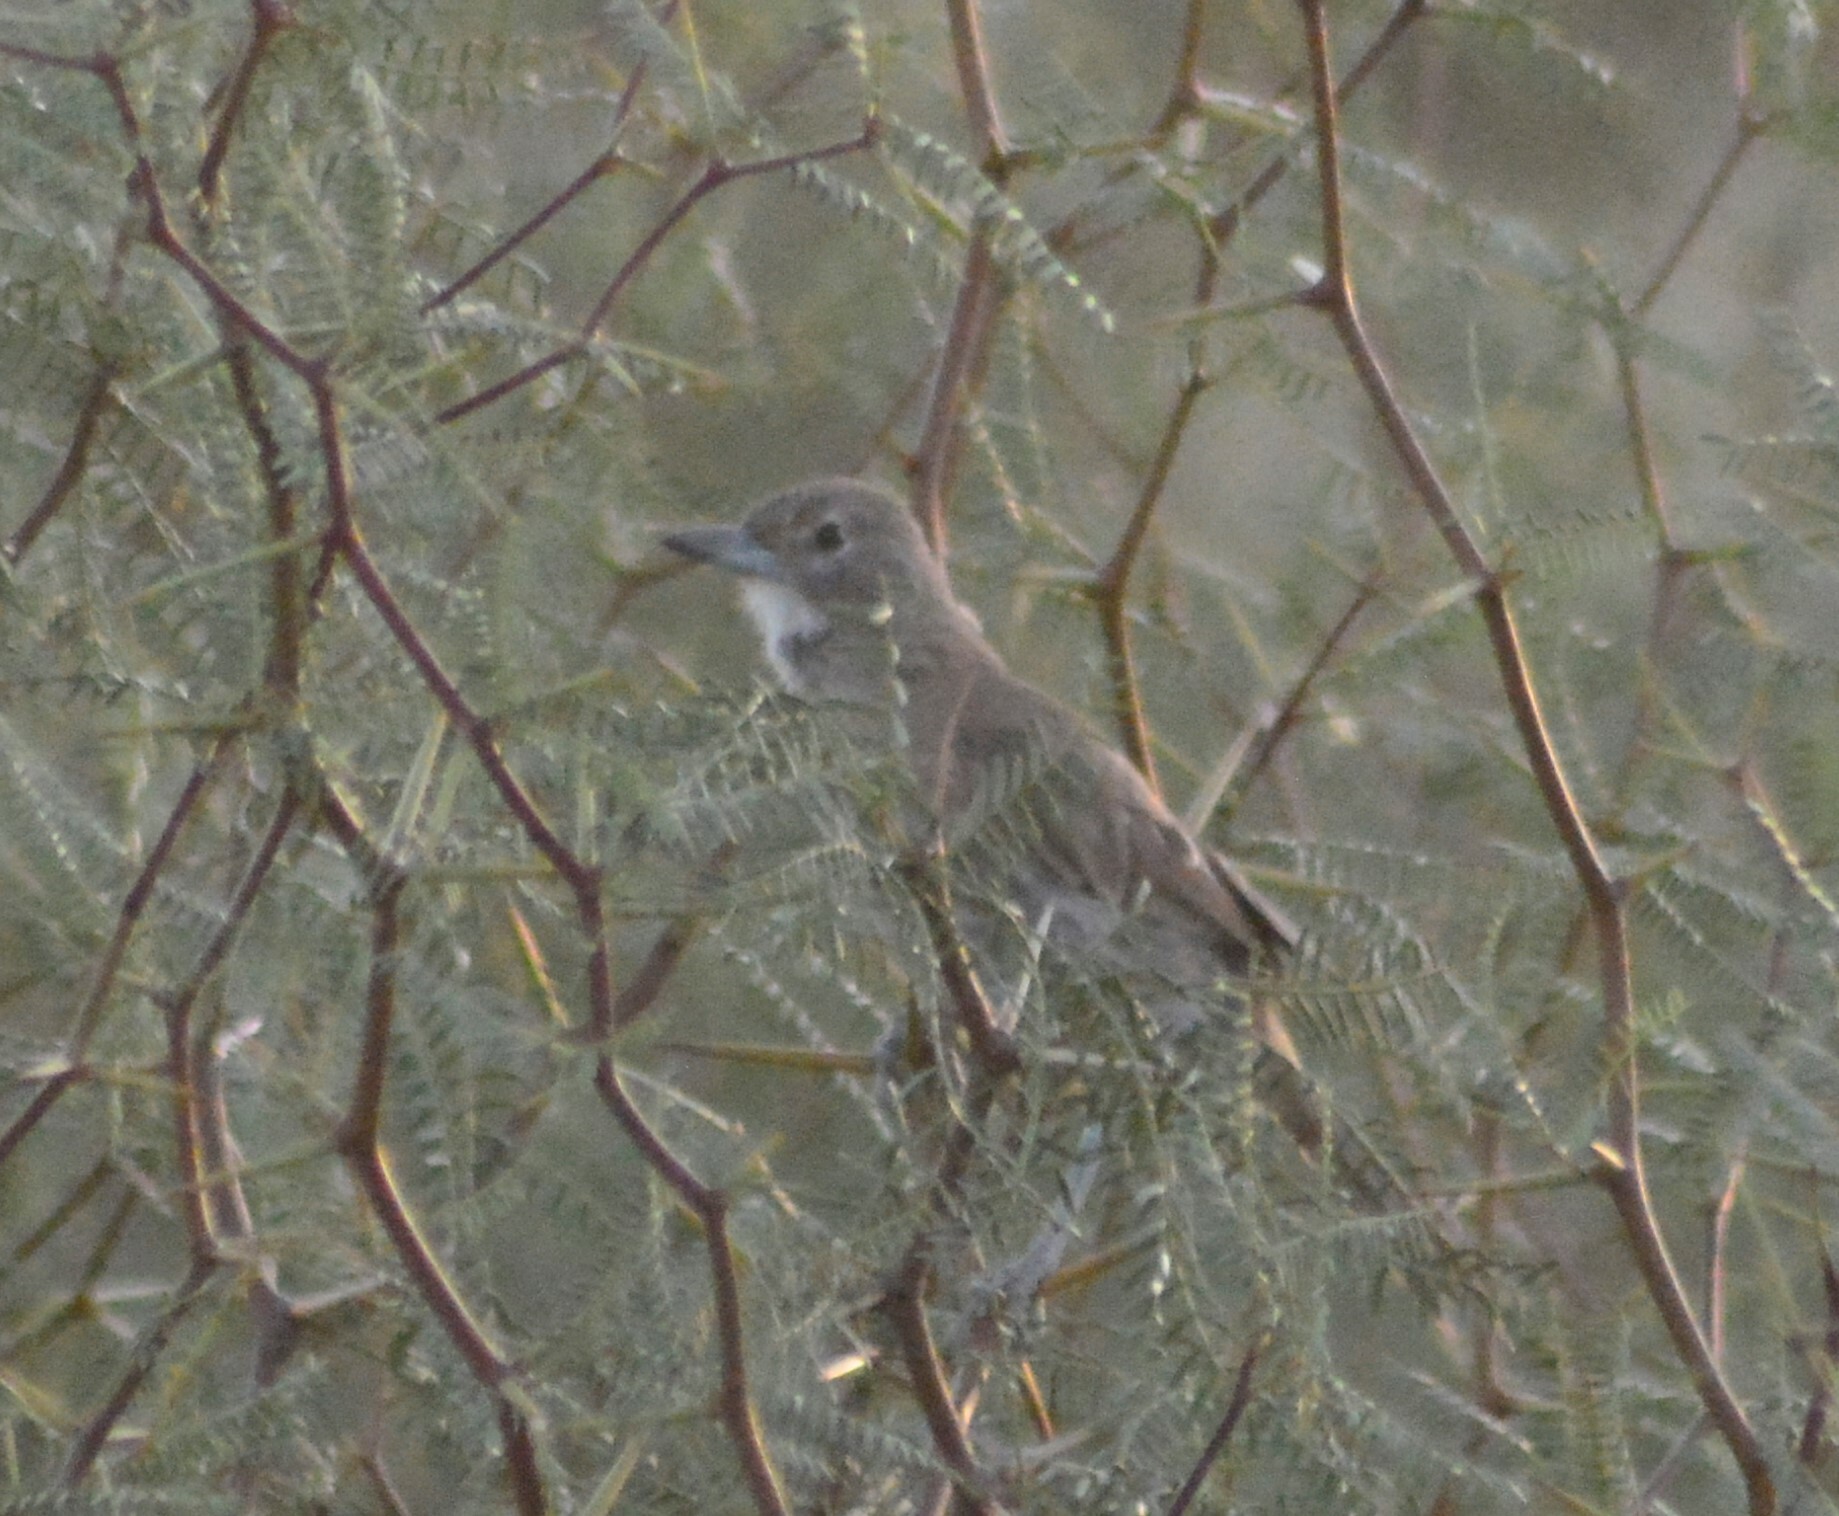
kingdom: Animalia
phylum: Chordata
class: Aves
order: Passeriformes
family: Furnariidae
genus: Pseudoseisura
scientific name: Pseudoseisura gutturalis
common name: White-throated cacholote
